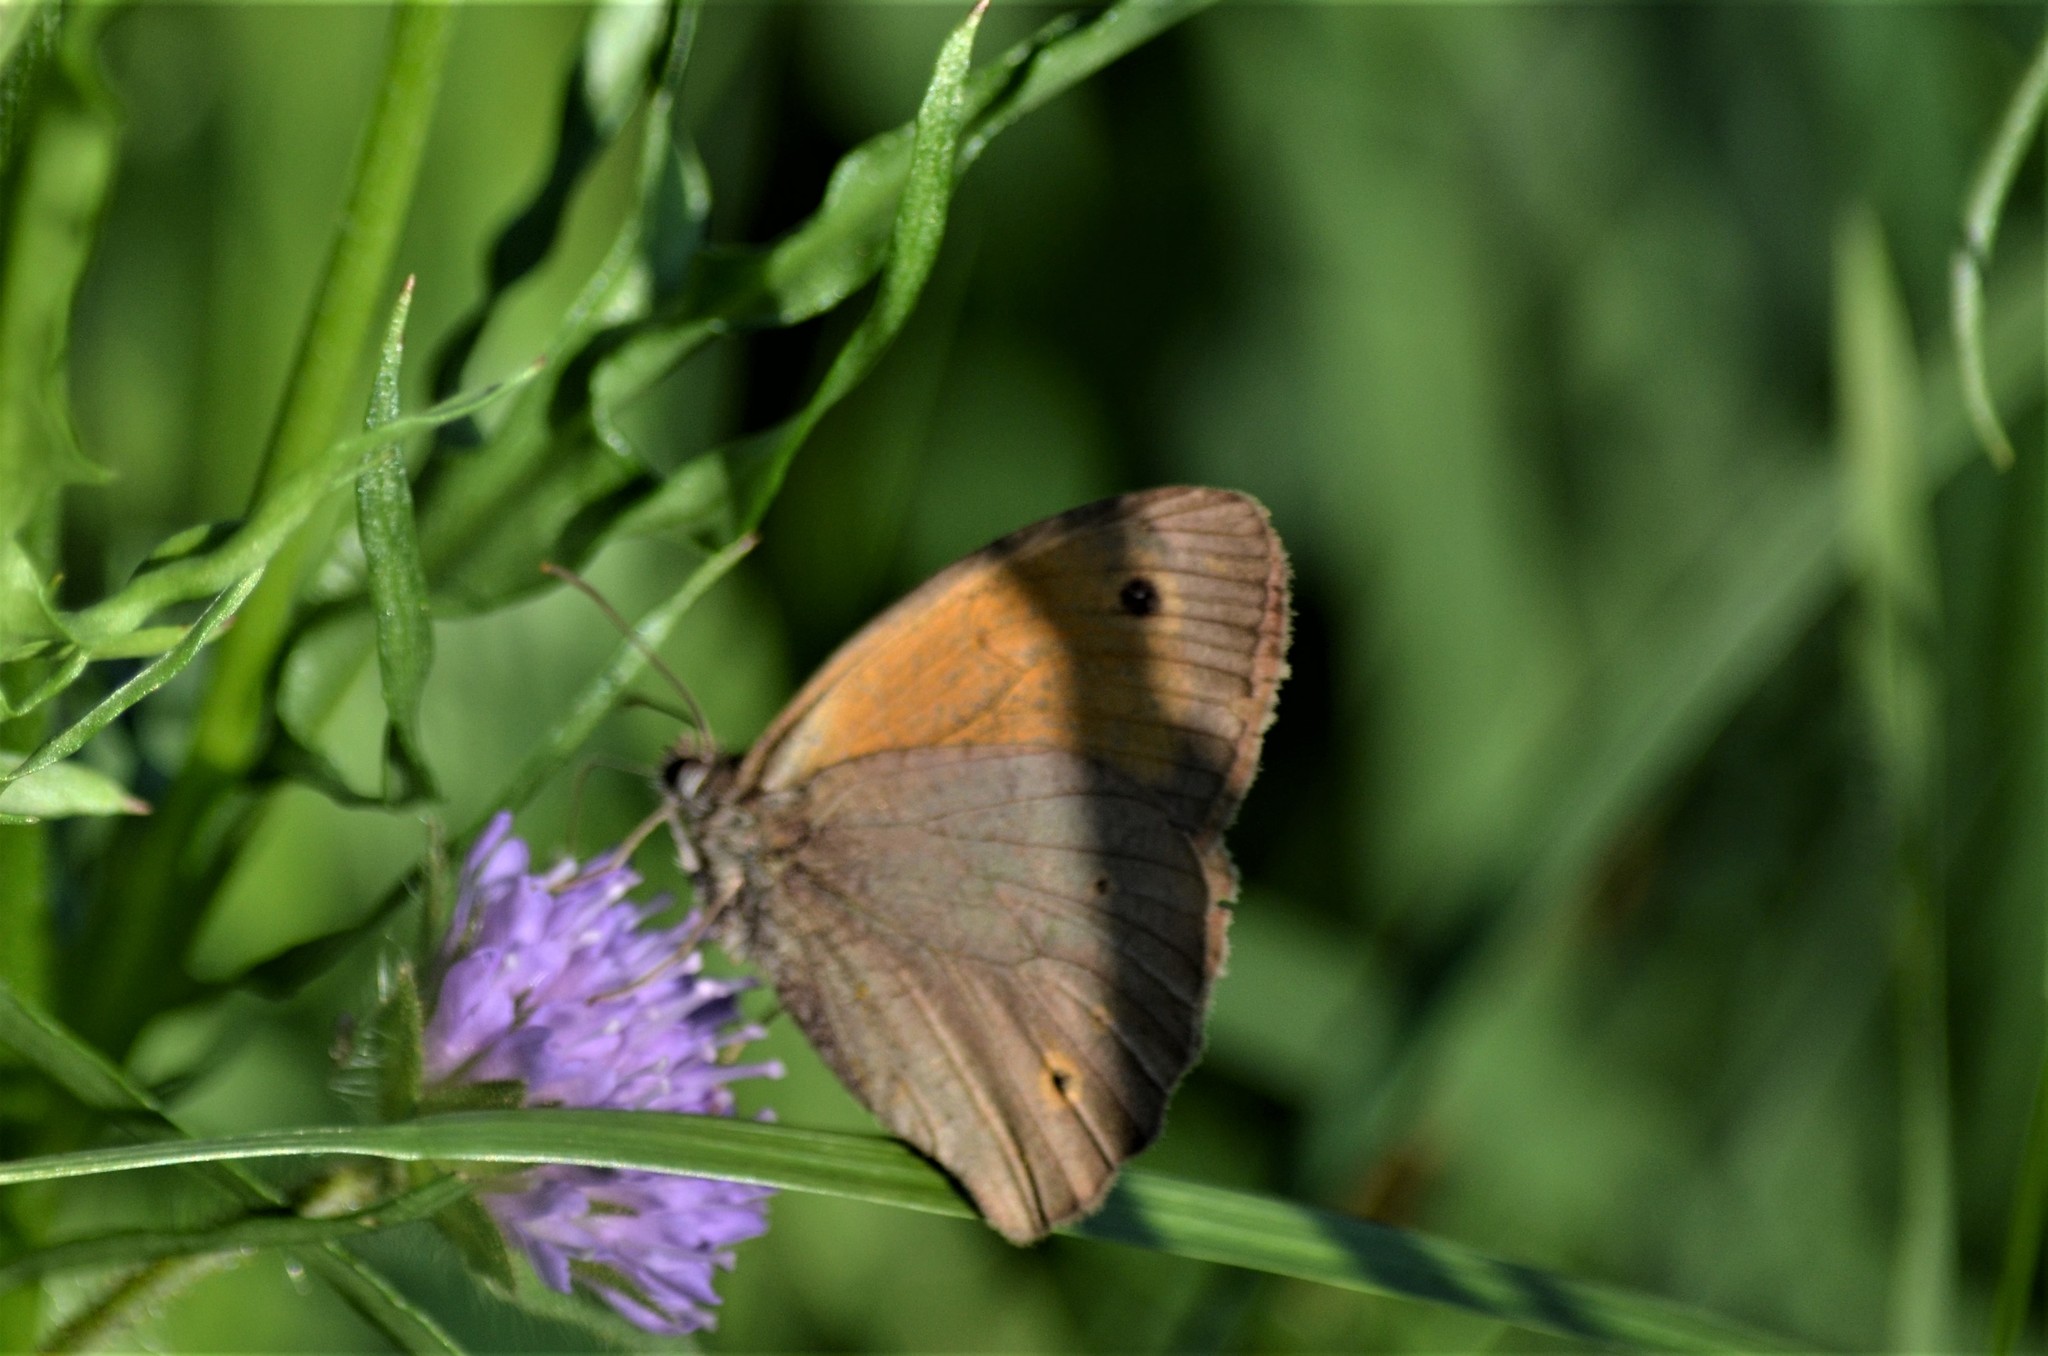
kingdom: Animalia
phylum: Arthropoda
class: Insecta
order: Lepidoptera
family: Nymphalidae
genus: Maniola
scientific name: Maniola jurtina
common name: Meadow brown
